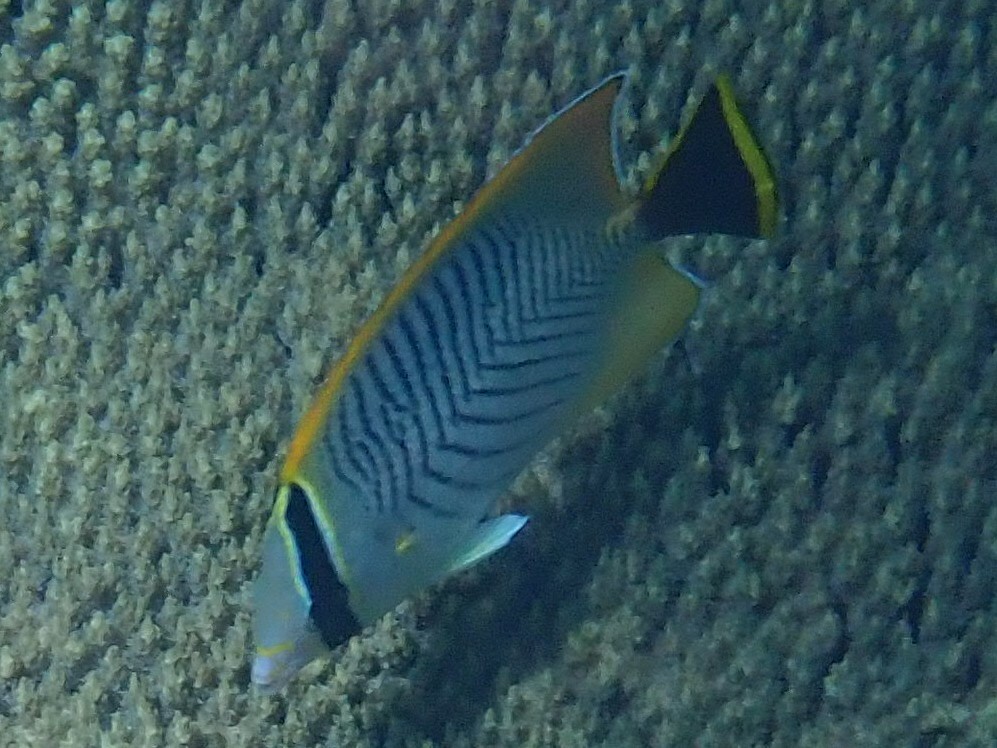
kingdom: Animalia
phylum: Chordata
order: Perciformes
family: Chaetodontidae
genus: Chaetodon
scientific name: Chaetodon trifascialis
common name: Chevroned butterflyfish
